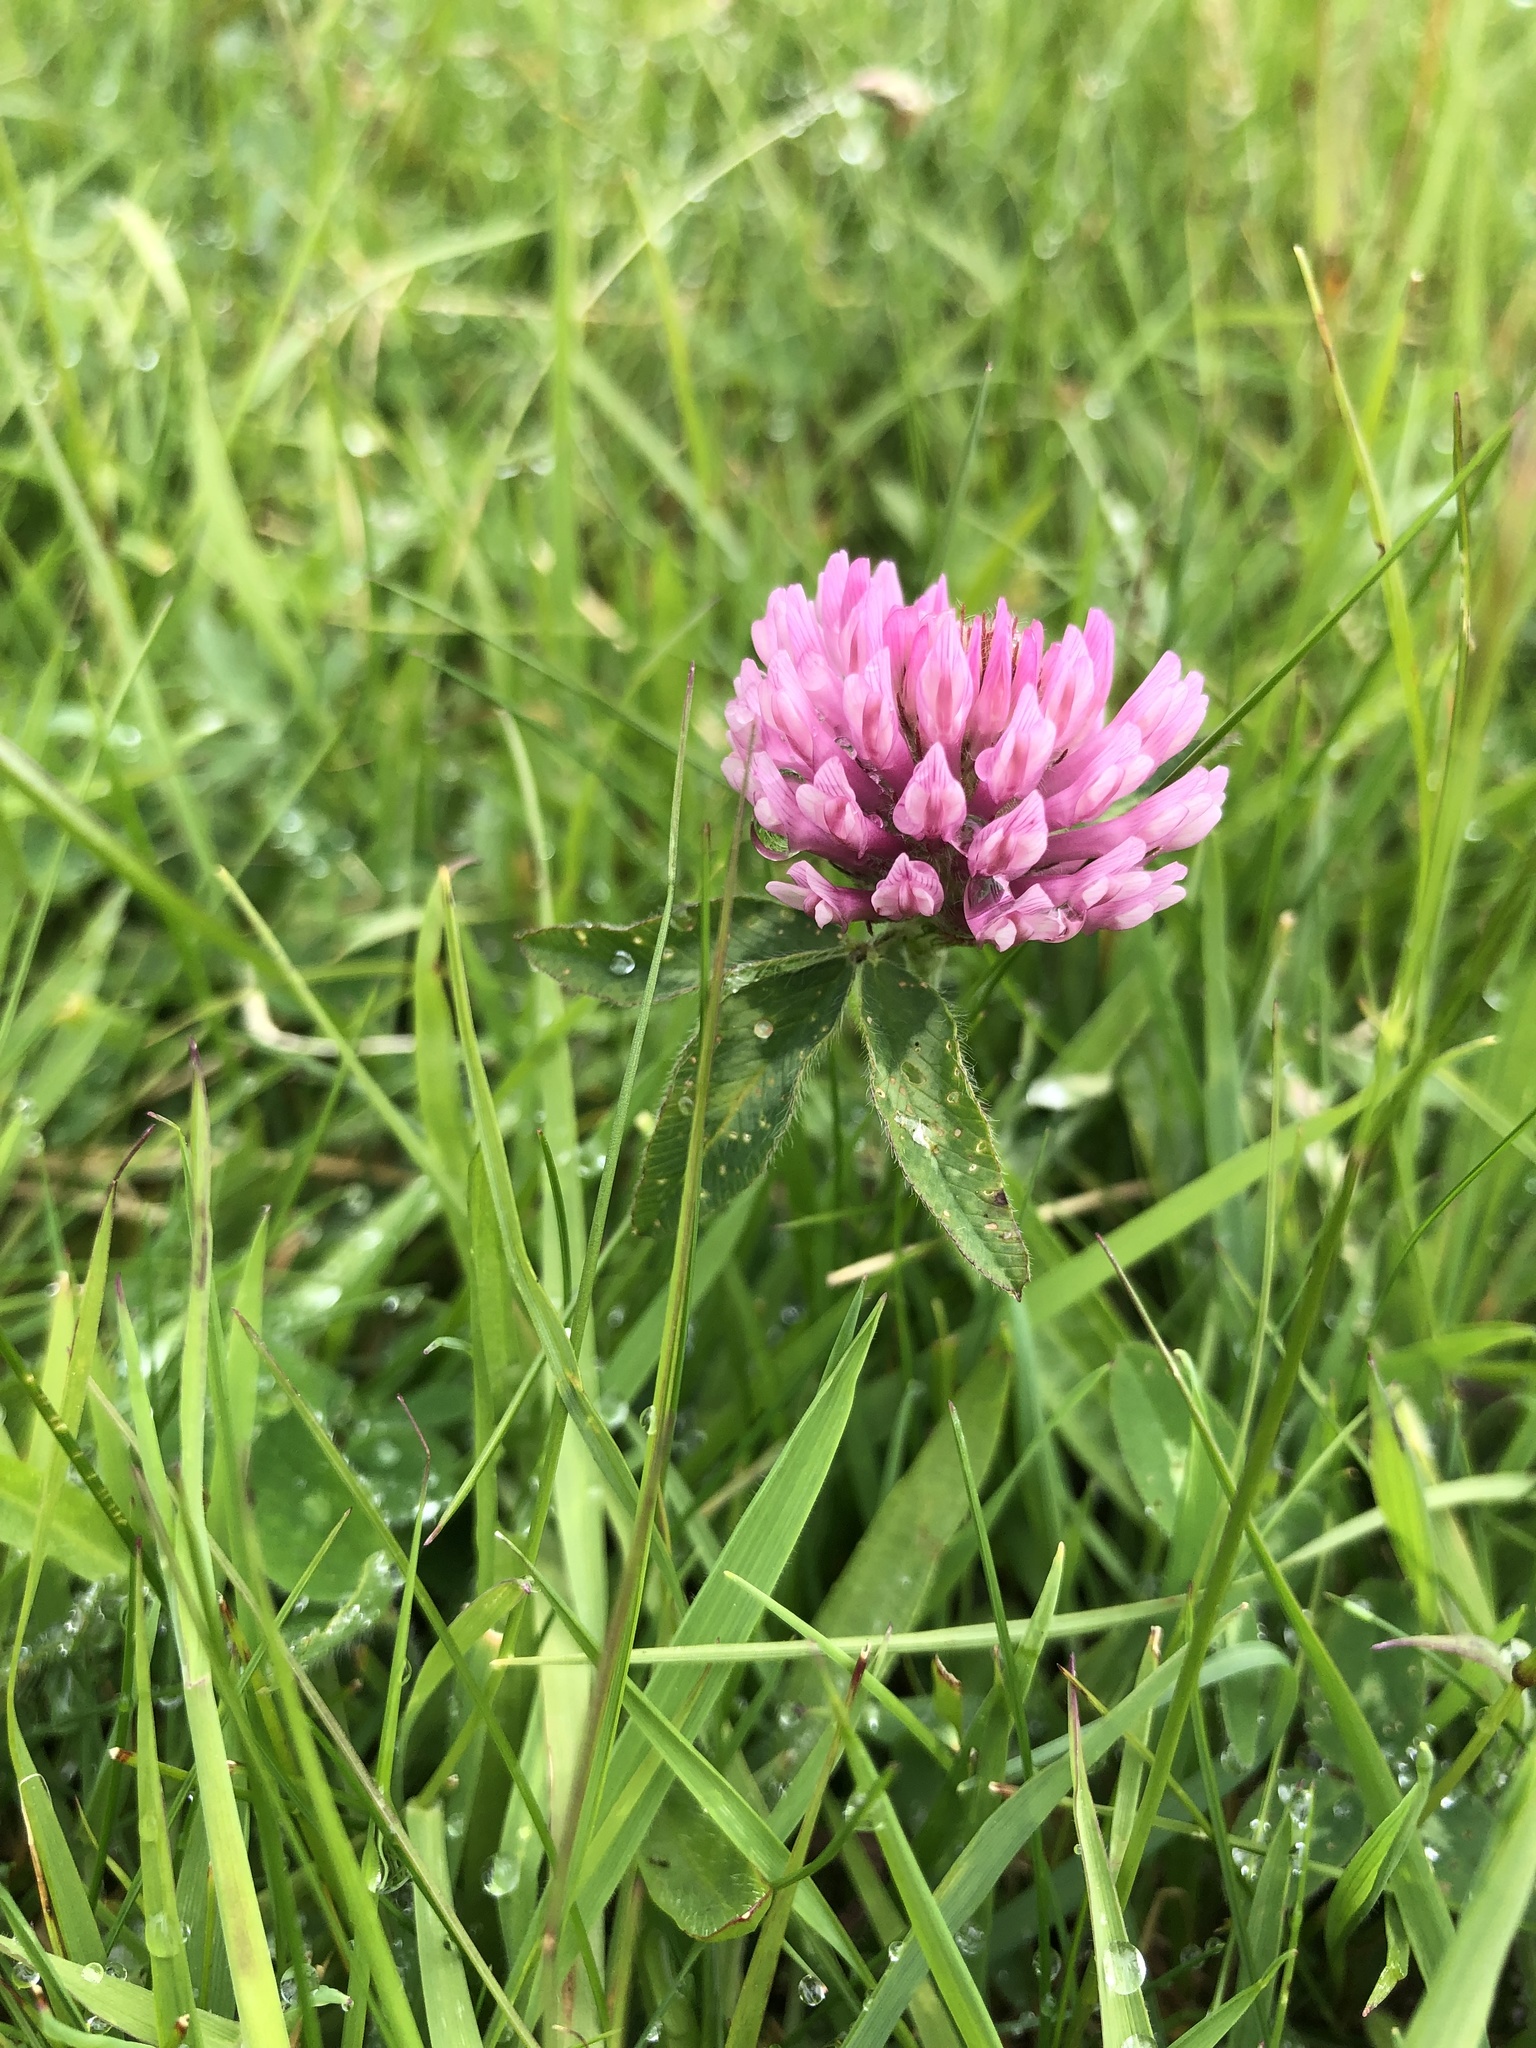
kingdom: Plantae
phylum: Tracheophyta
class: Magnoliopsida
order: Fabales
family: Fabaceae
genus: Trifolium
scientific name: Trifolium pratense
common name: Red clover
